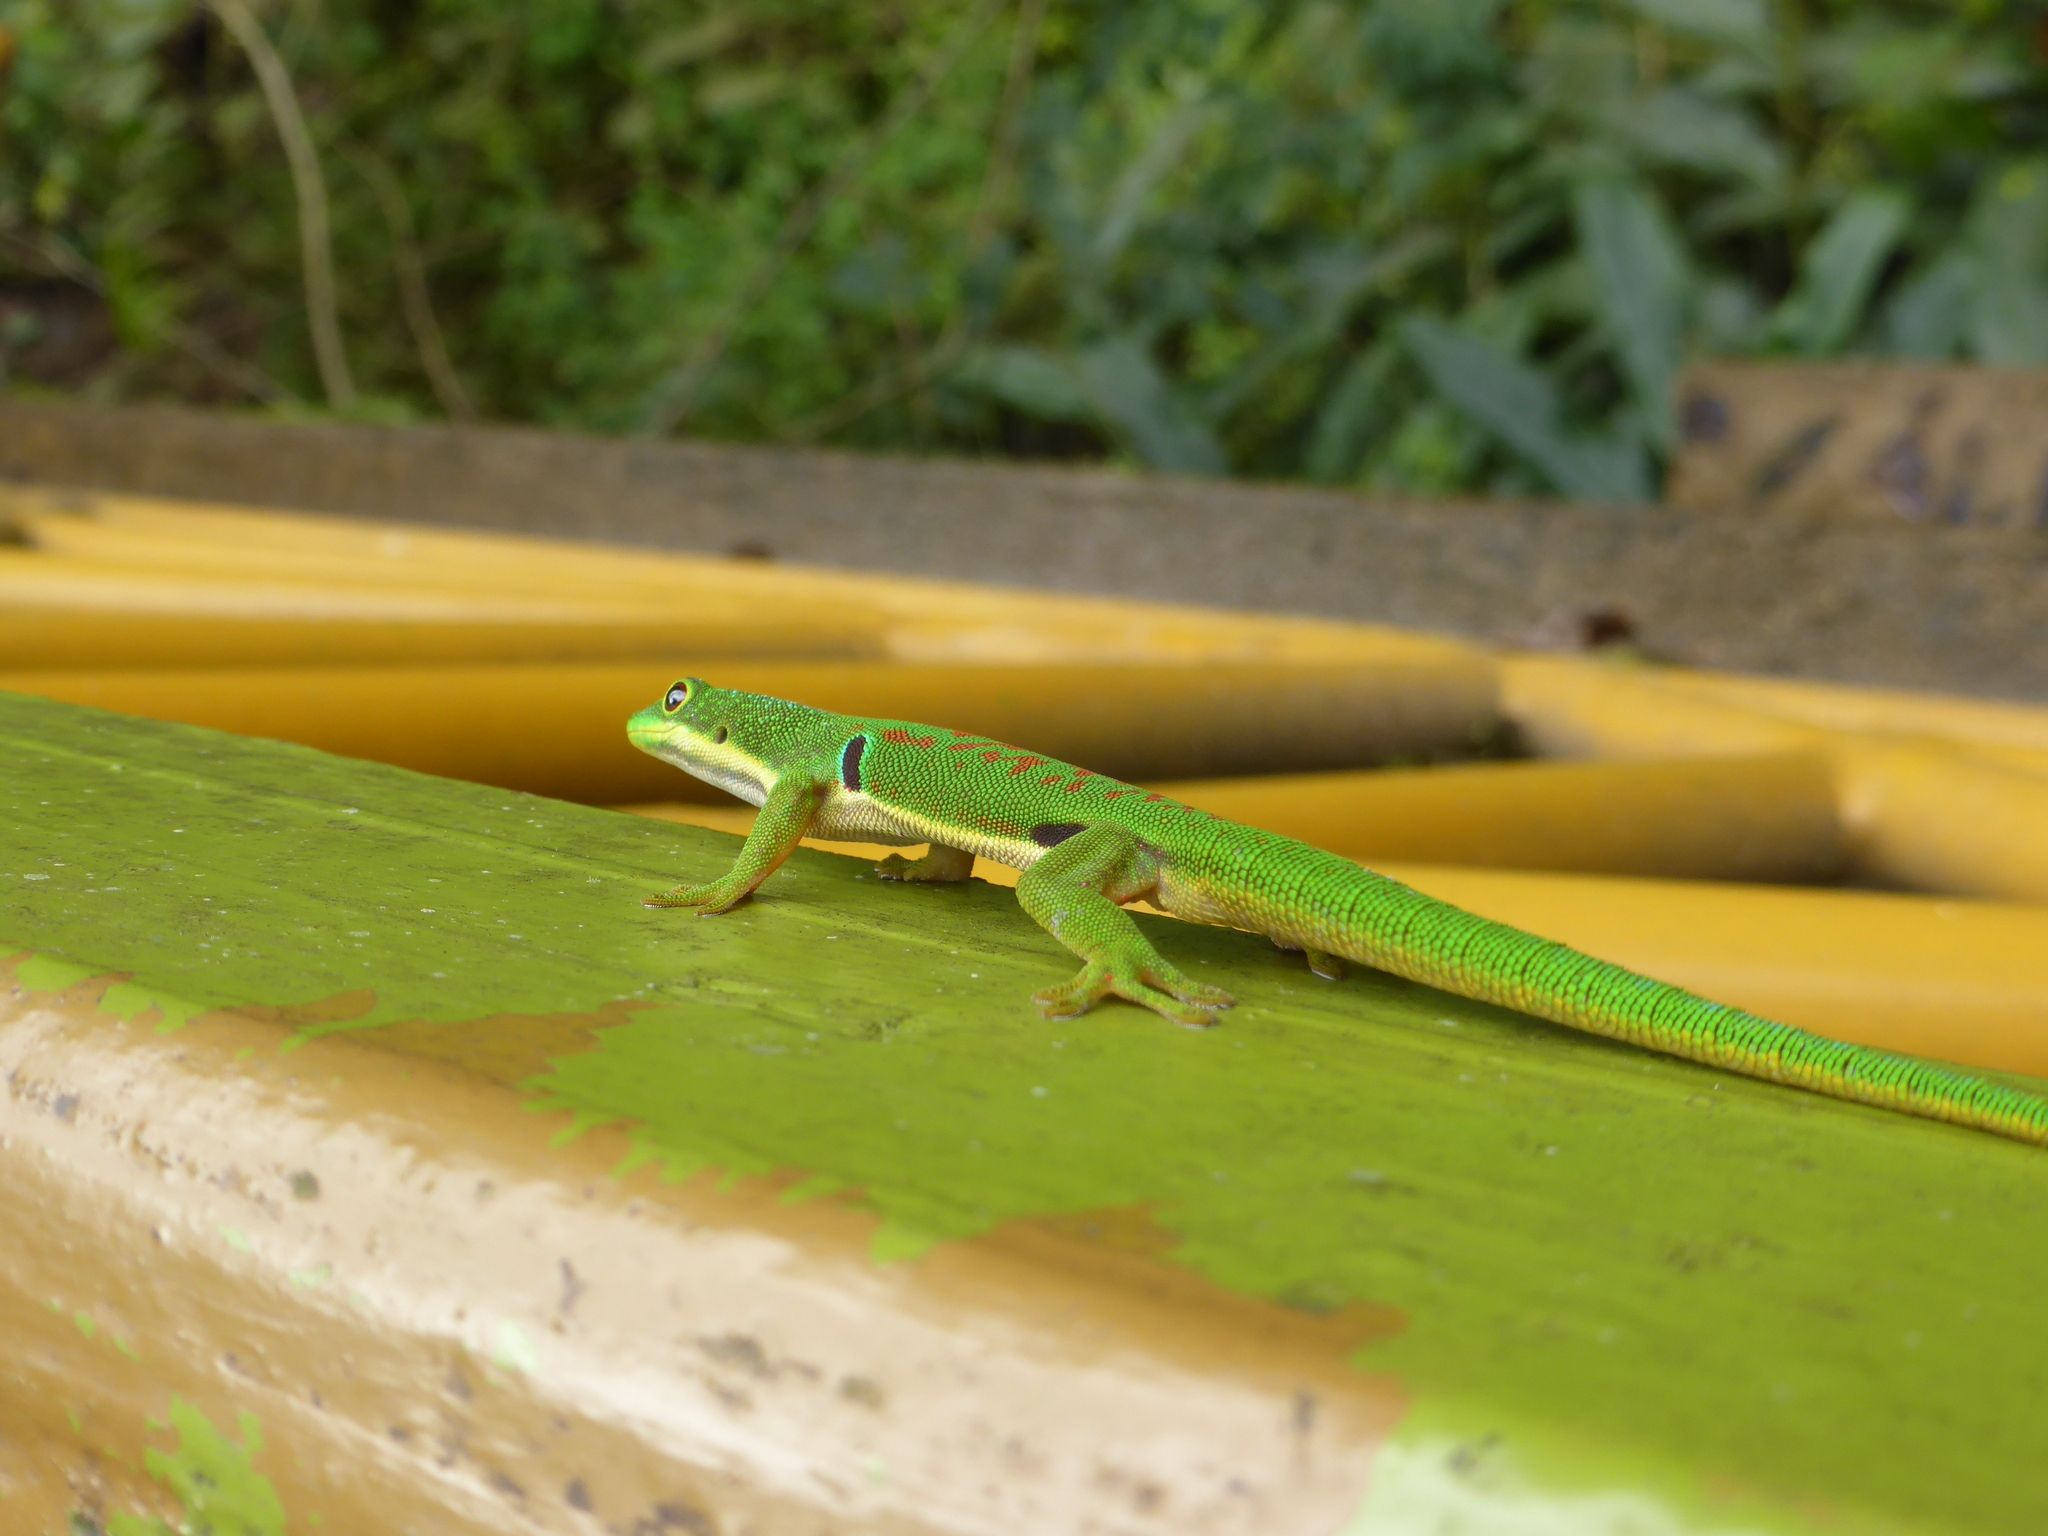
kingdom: Animalia
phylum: Chordata
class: Squamata
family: Gekkonidae
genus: Phelsuma
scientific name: Phelsuma quadriocellata
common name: Peacock day gecko
